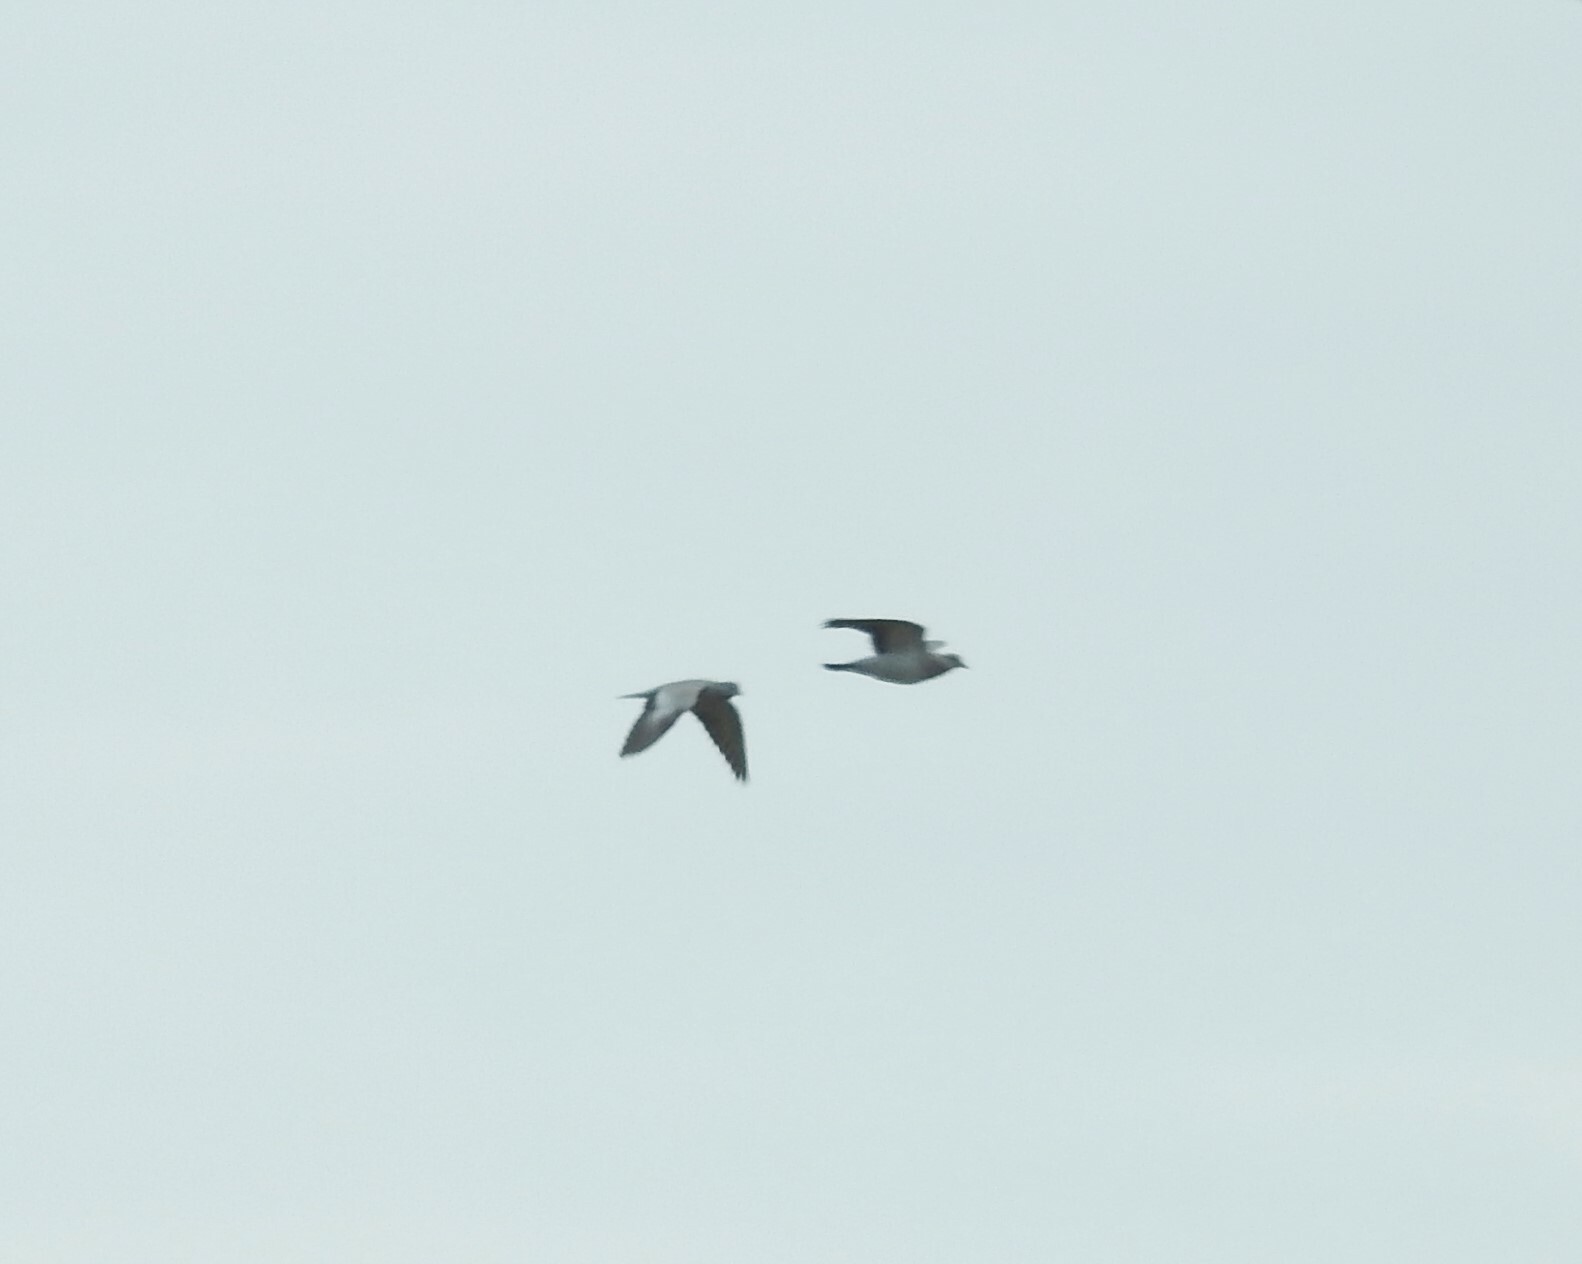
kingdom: Animalia
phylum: Chordata
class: Aves
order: Columbiformes
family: Columbidae
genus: Columba
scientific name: Columba oenas
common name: Stock dove
